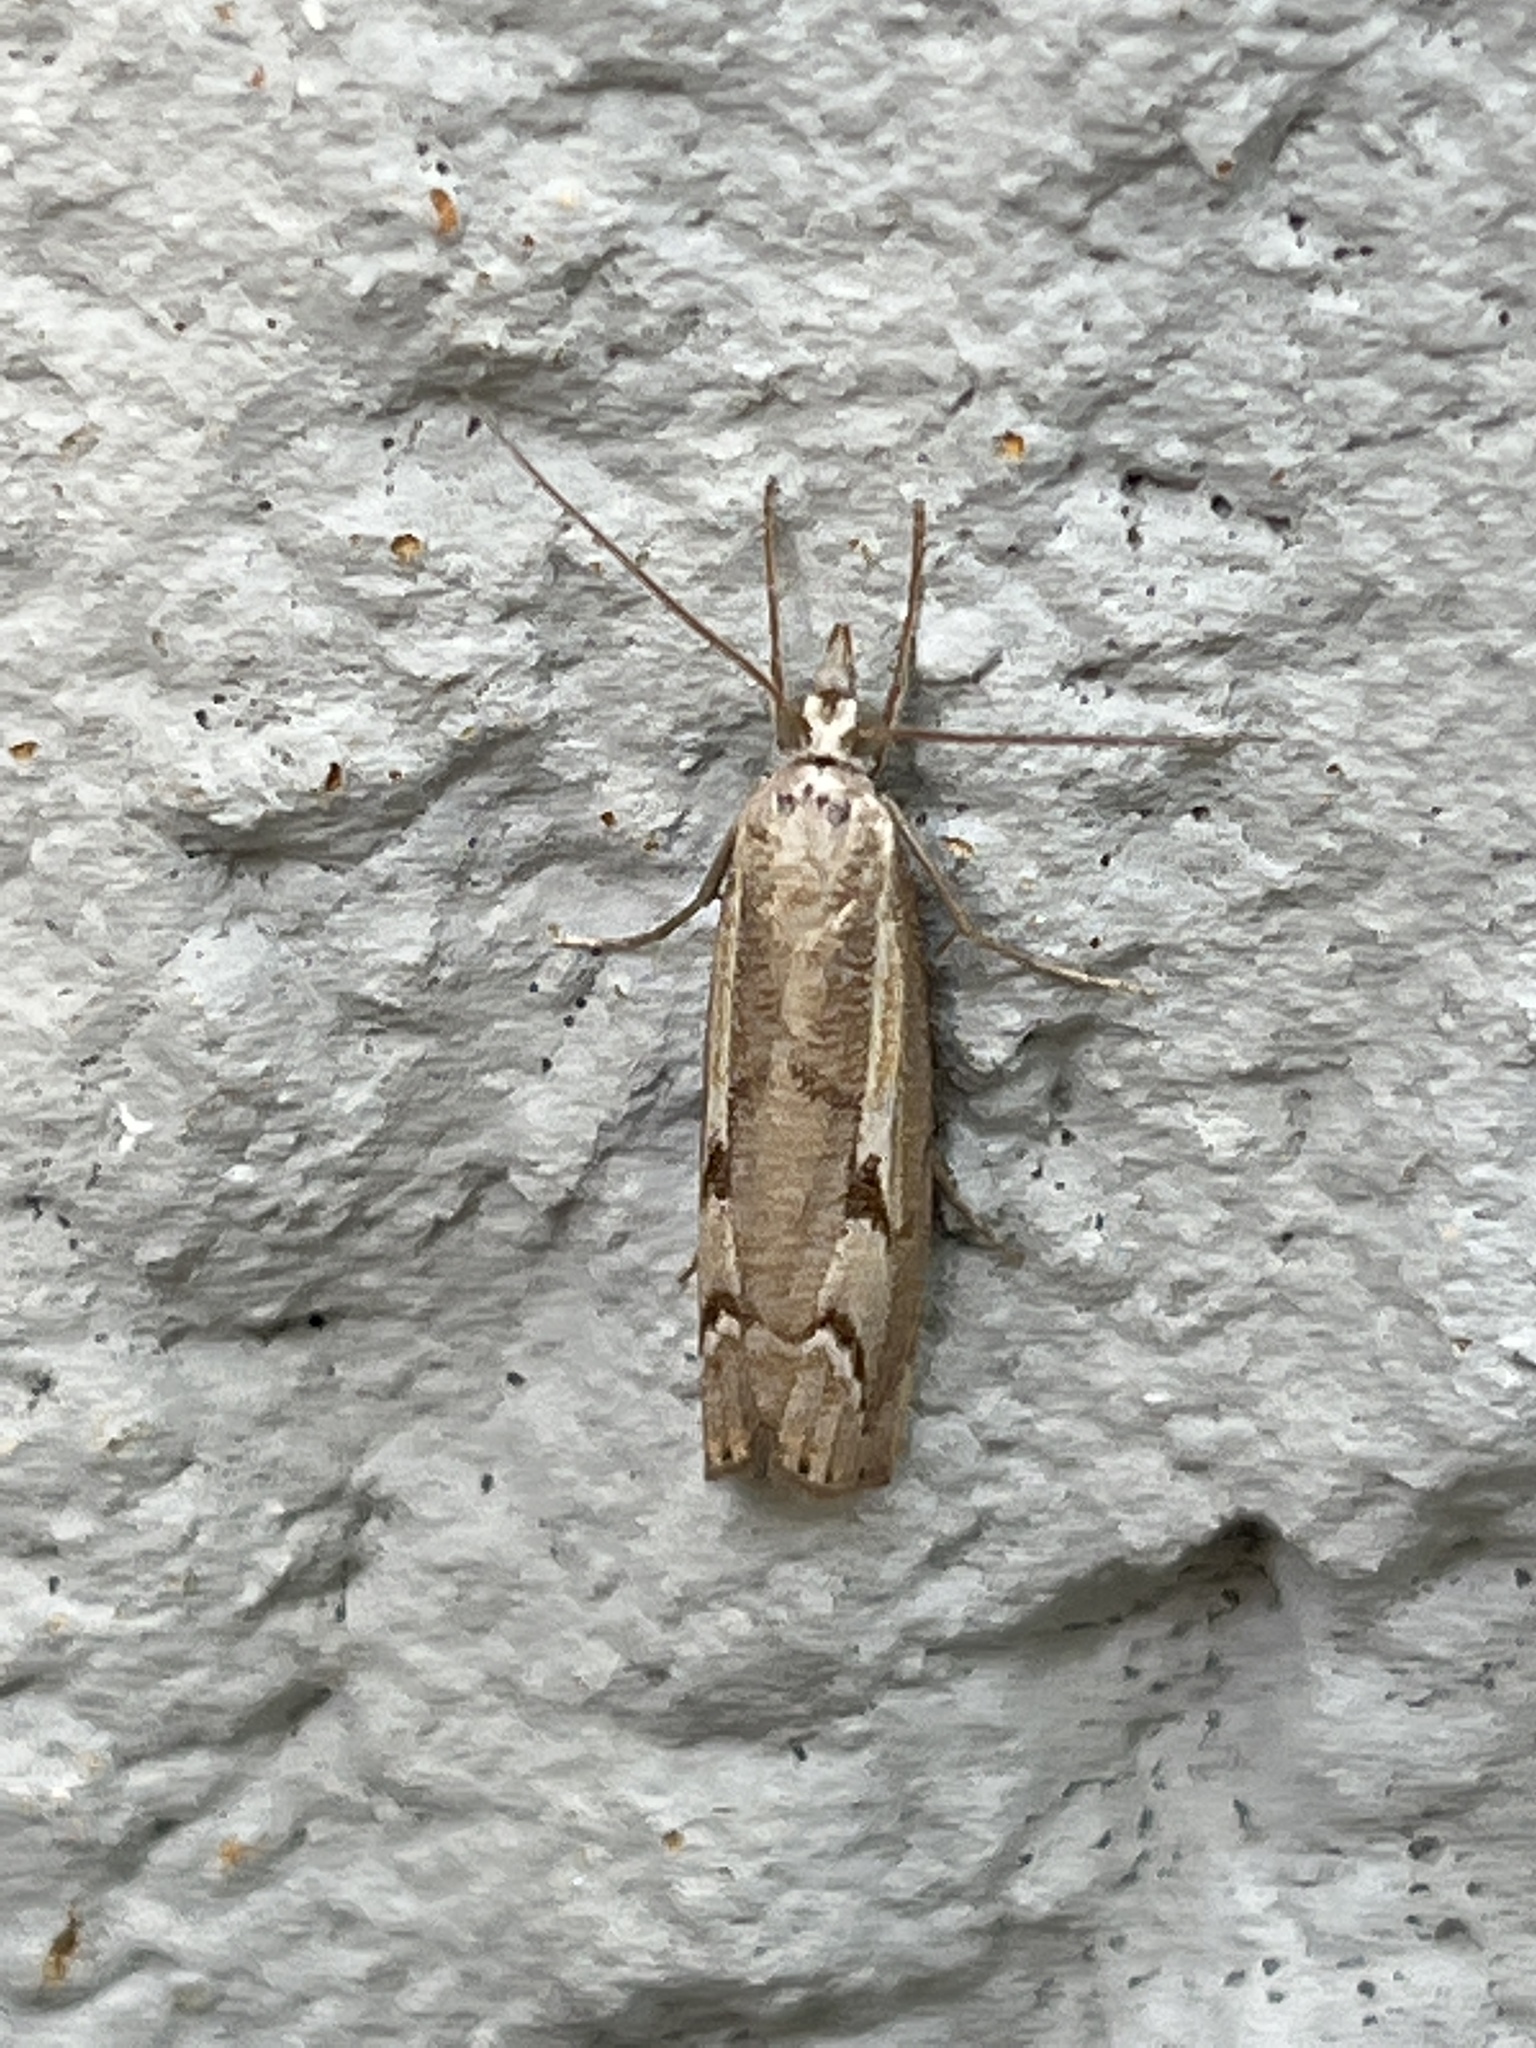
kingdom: Animalia
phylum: Arthropoda
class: Insecta
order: Lepidoptera
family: Crambidae
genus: Agriphila
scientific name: Agriphila geniculea
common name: Elbow-stripe grass-veneer
